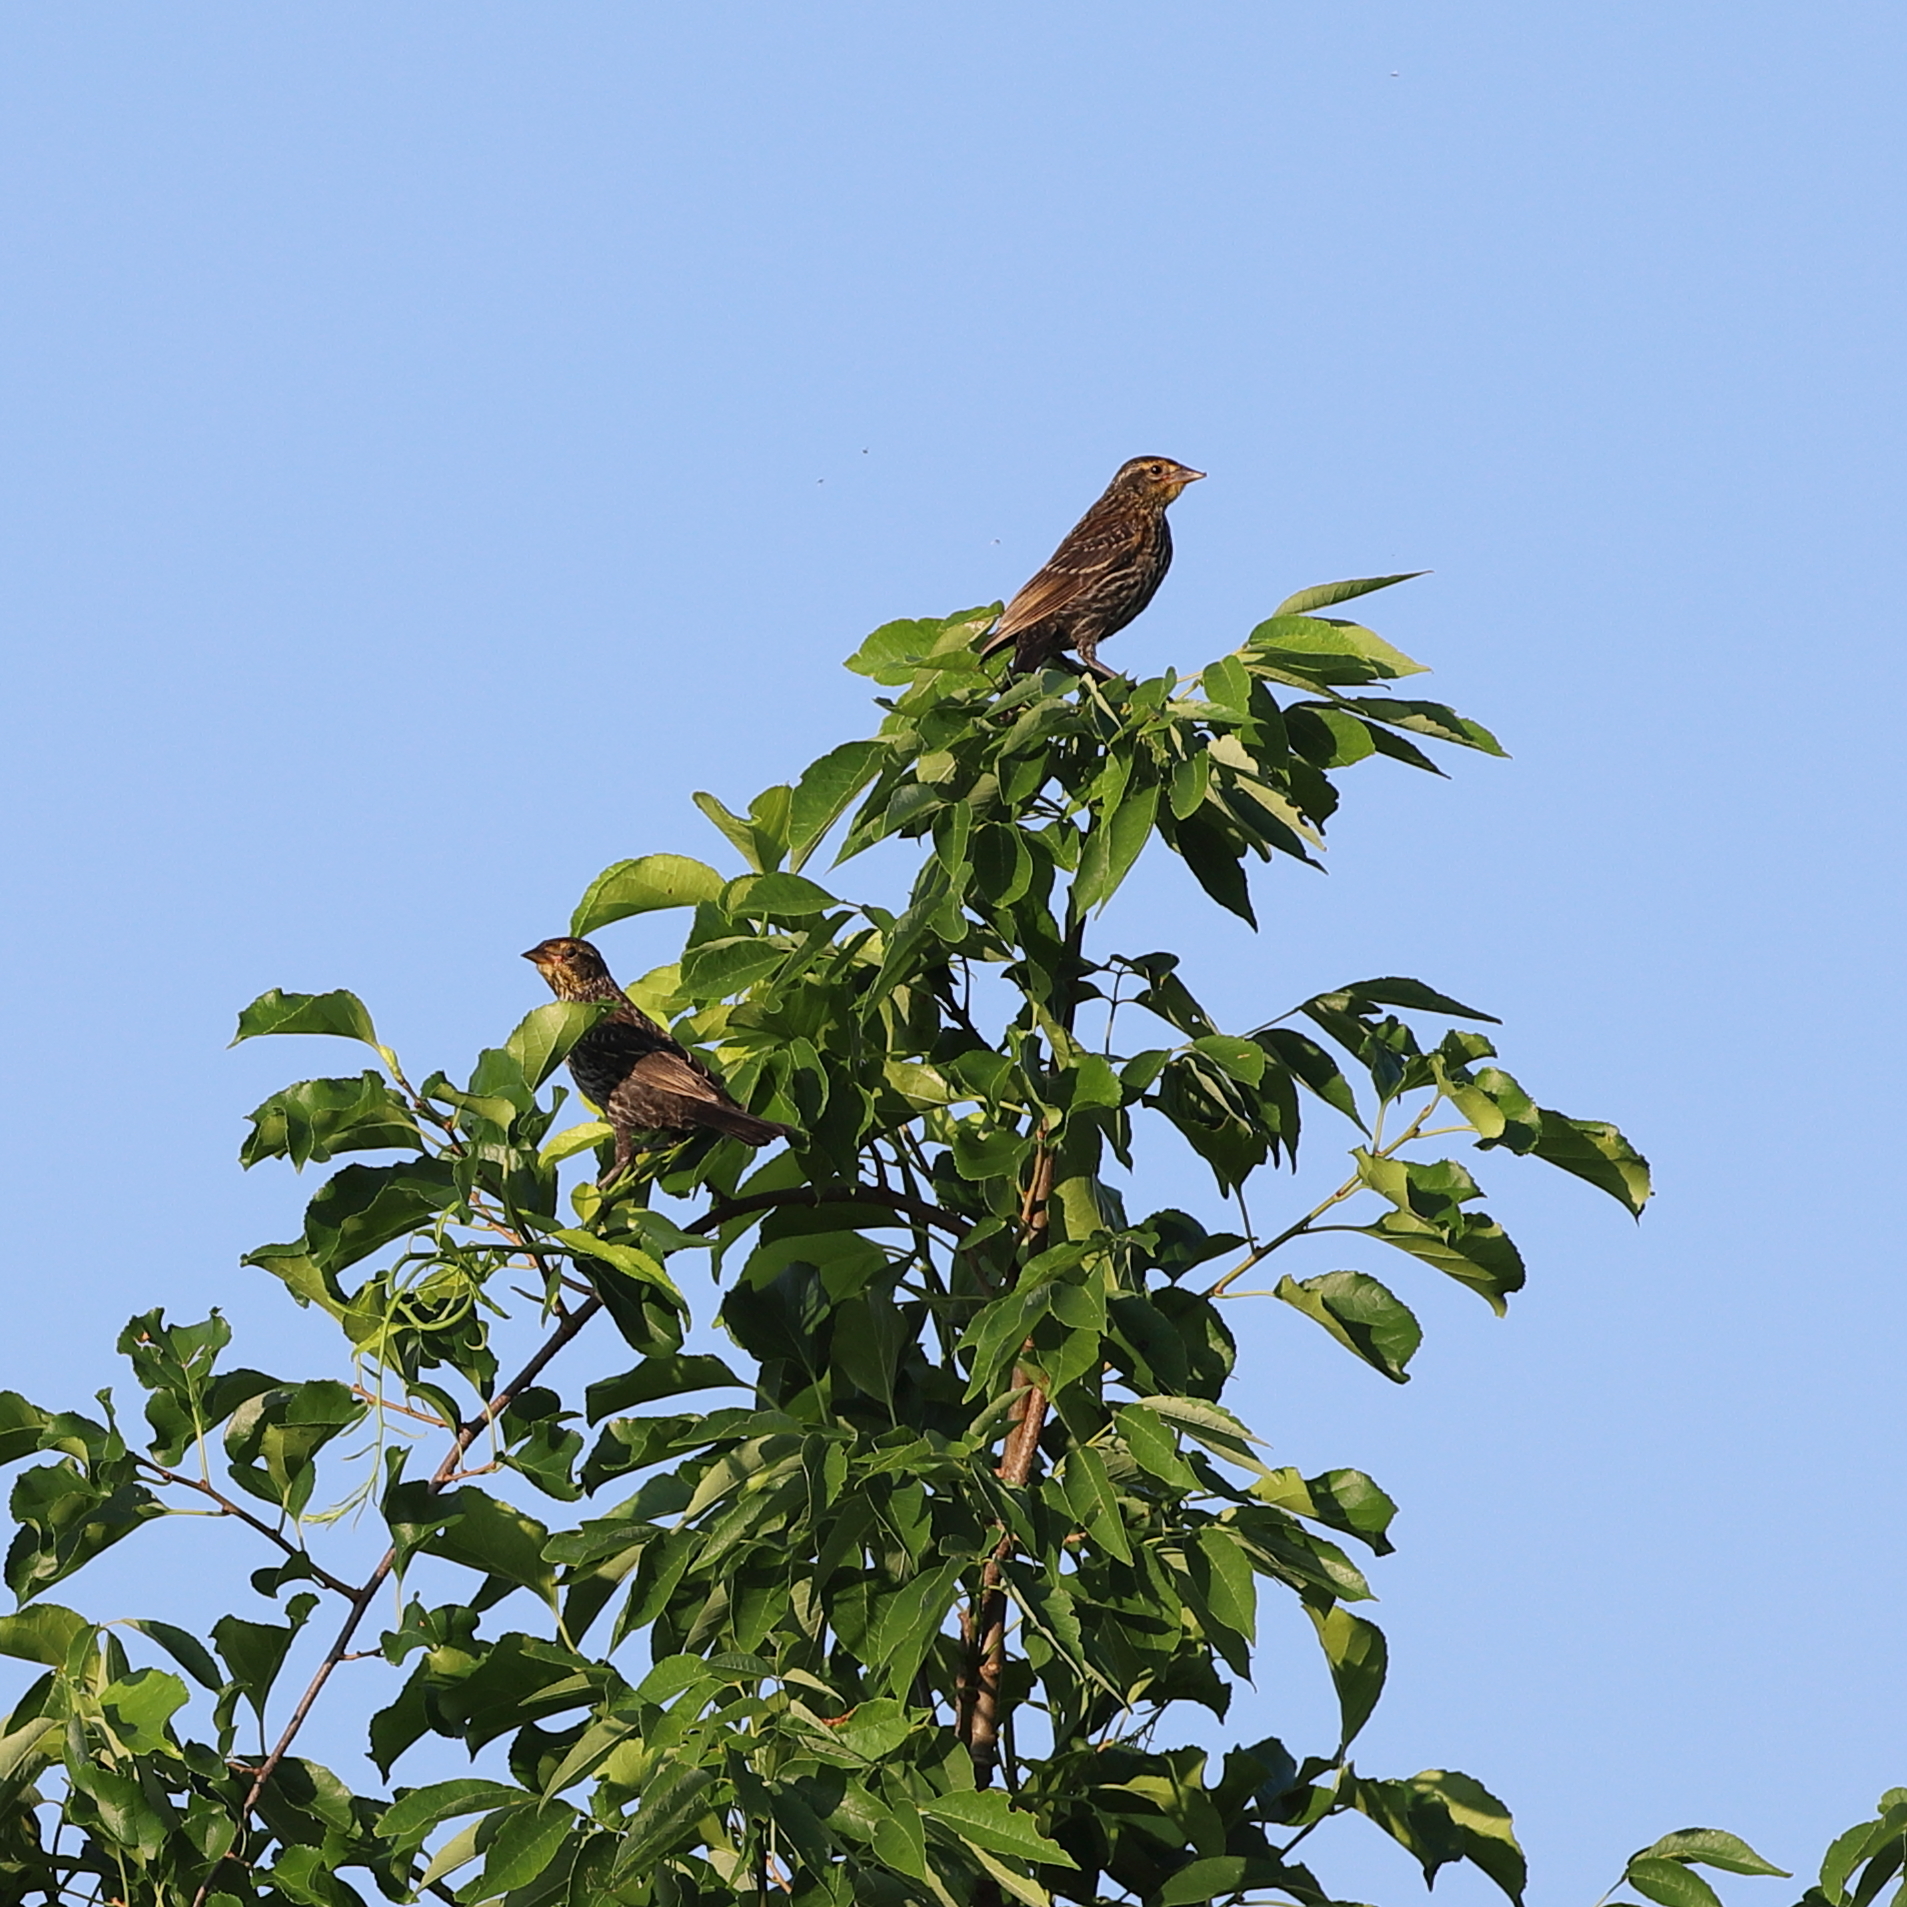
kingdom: Animalia
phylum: Chordata
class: Aves
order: Passeriformes
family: Icteridae
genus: Agelaius
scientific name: Agelaius phoeniceus
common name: Red-winged blackbird
